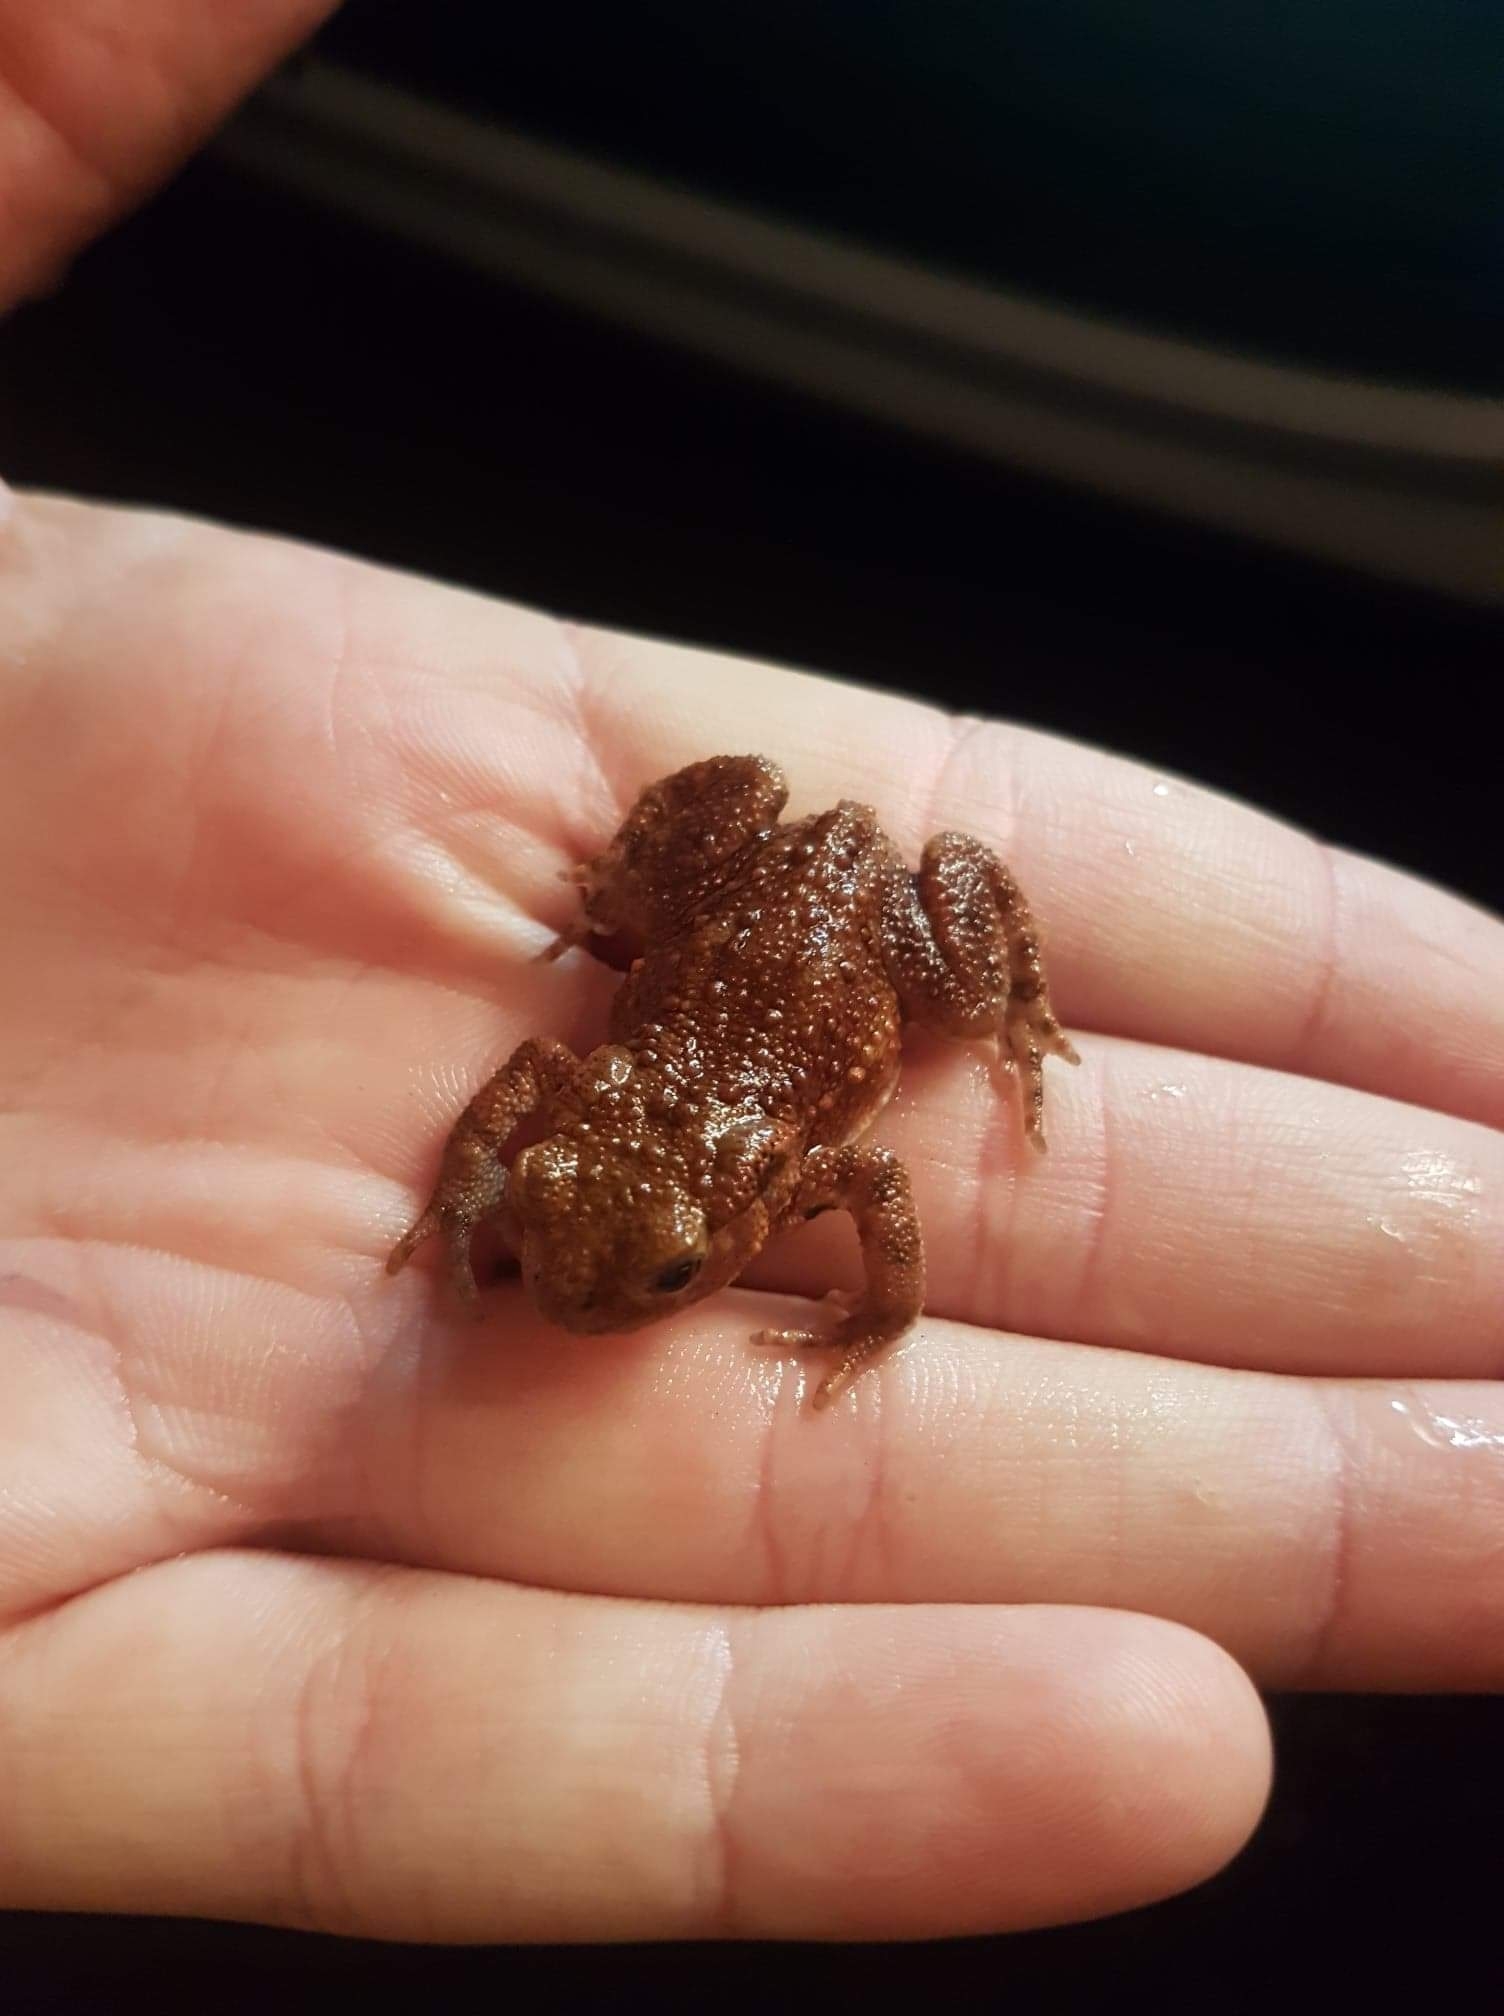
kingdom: Animalia
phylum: Chordata
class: Amphibia
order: Anura
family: Bufonidae
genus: Bufo
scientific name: Bufo bufo
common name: Common toad
